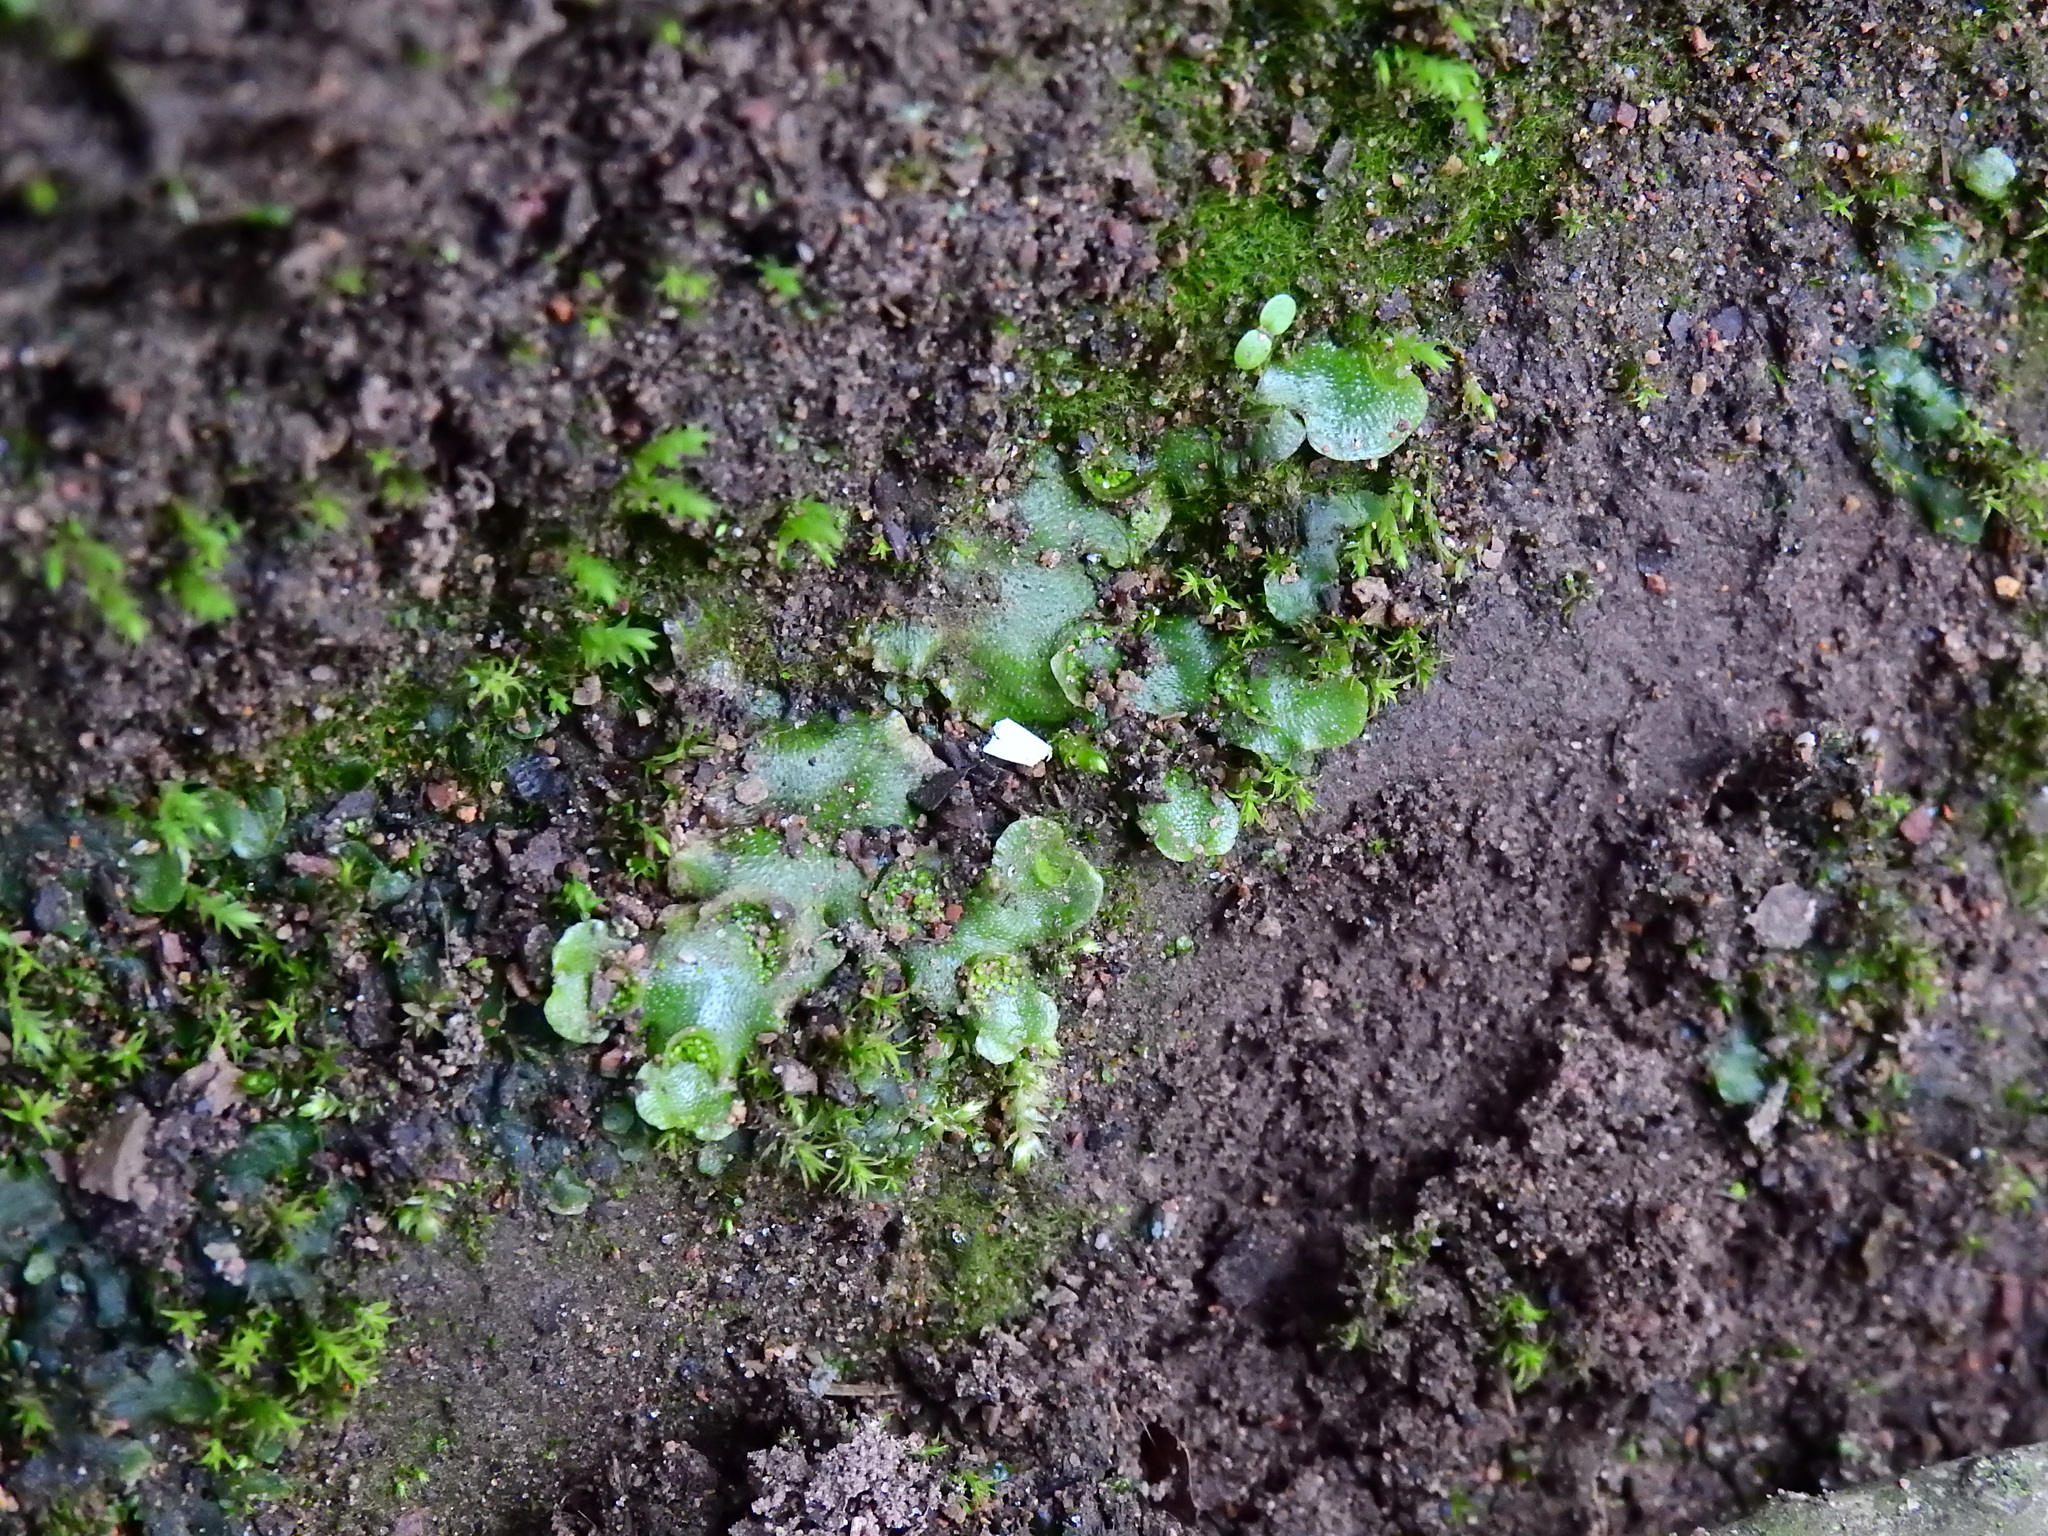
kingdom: Plantae
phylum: Marchantiophyta
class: Marchantiopsida
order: Lunulariales
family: Lunulariaceae
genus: Lunularia
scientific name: Lunularia cruciata
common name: Crescent-cup liverwort
